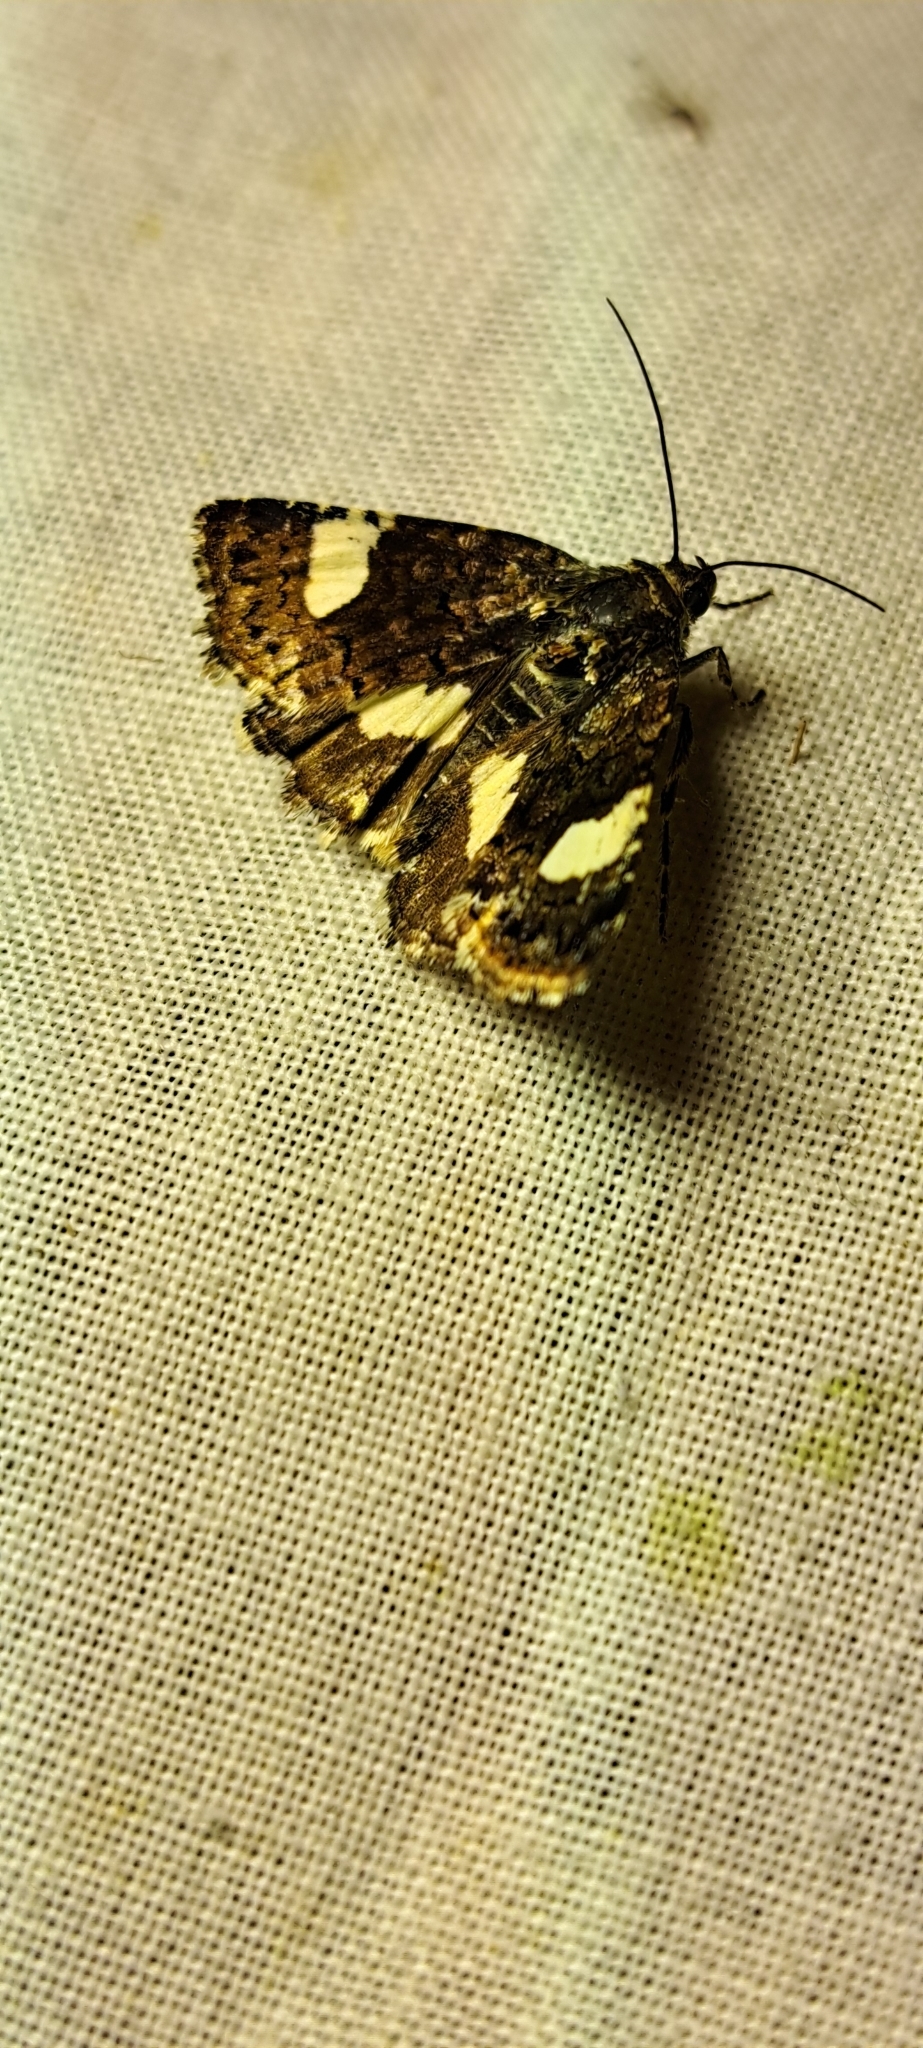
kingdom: Animalia
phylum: Arthropoda
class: Insecta
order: Lepidoptera
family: Erebidae
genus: Tyta
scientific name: Tyta luctuosa
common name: Four-spotted
